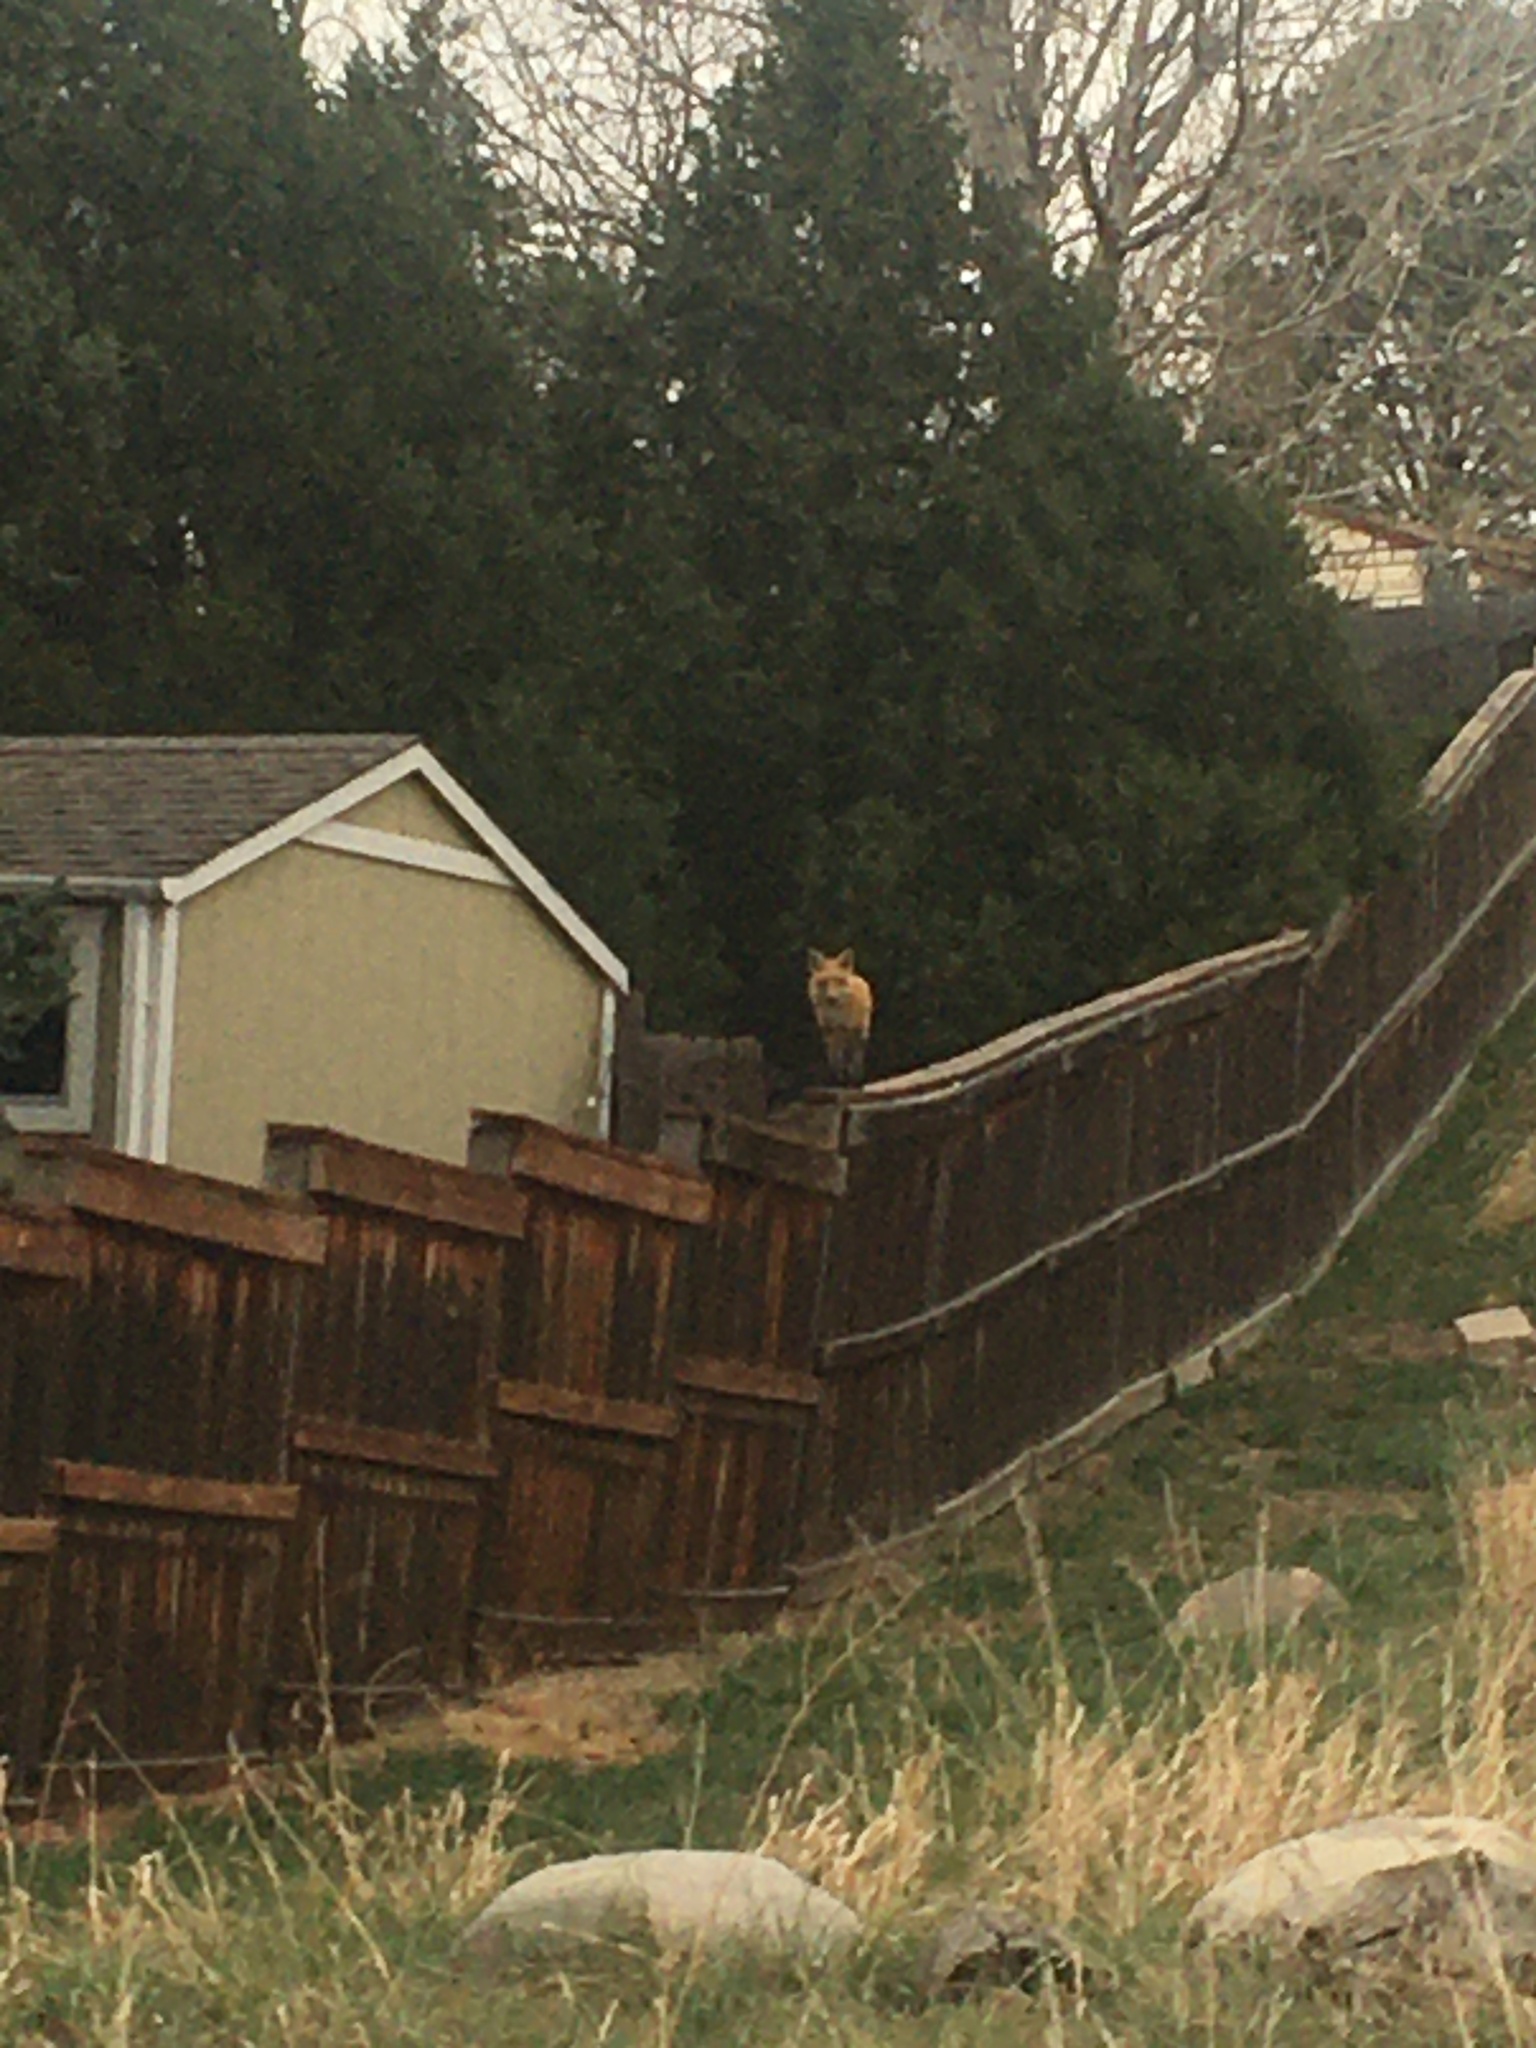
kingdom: Animalia
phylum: Chordata
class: Mammalia
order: Carnivora
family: Canidae
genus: Vulpes
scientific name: Vulpes vulpes
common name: Red fox
